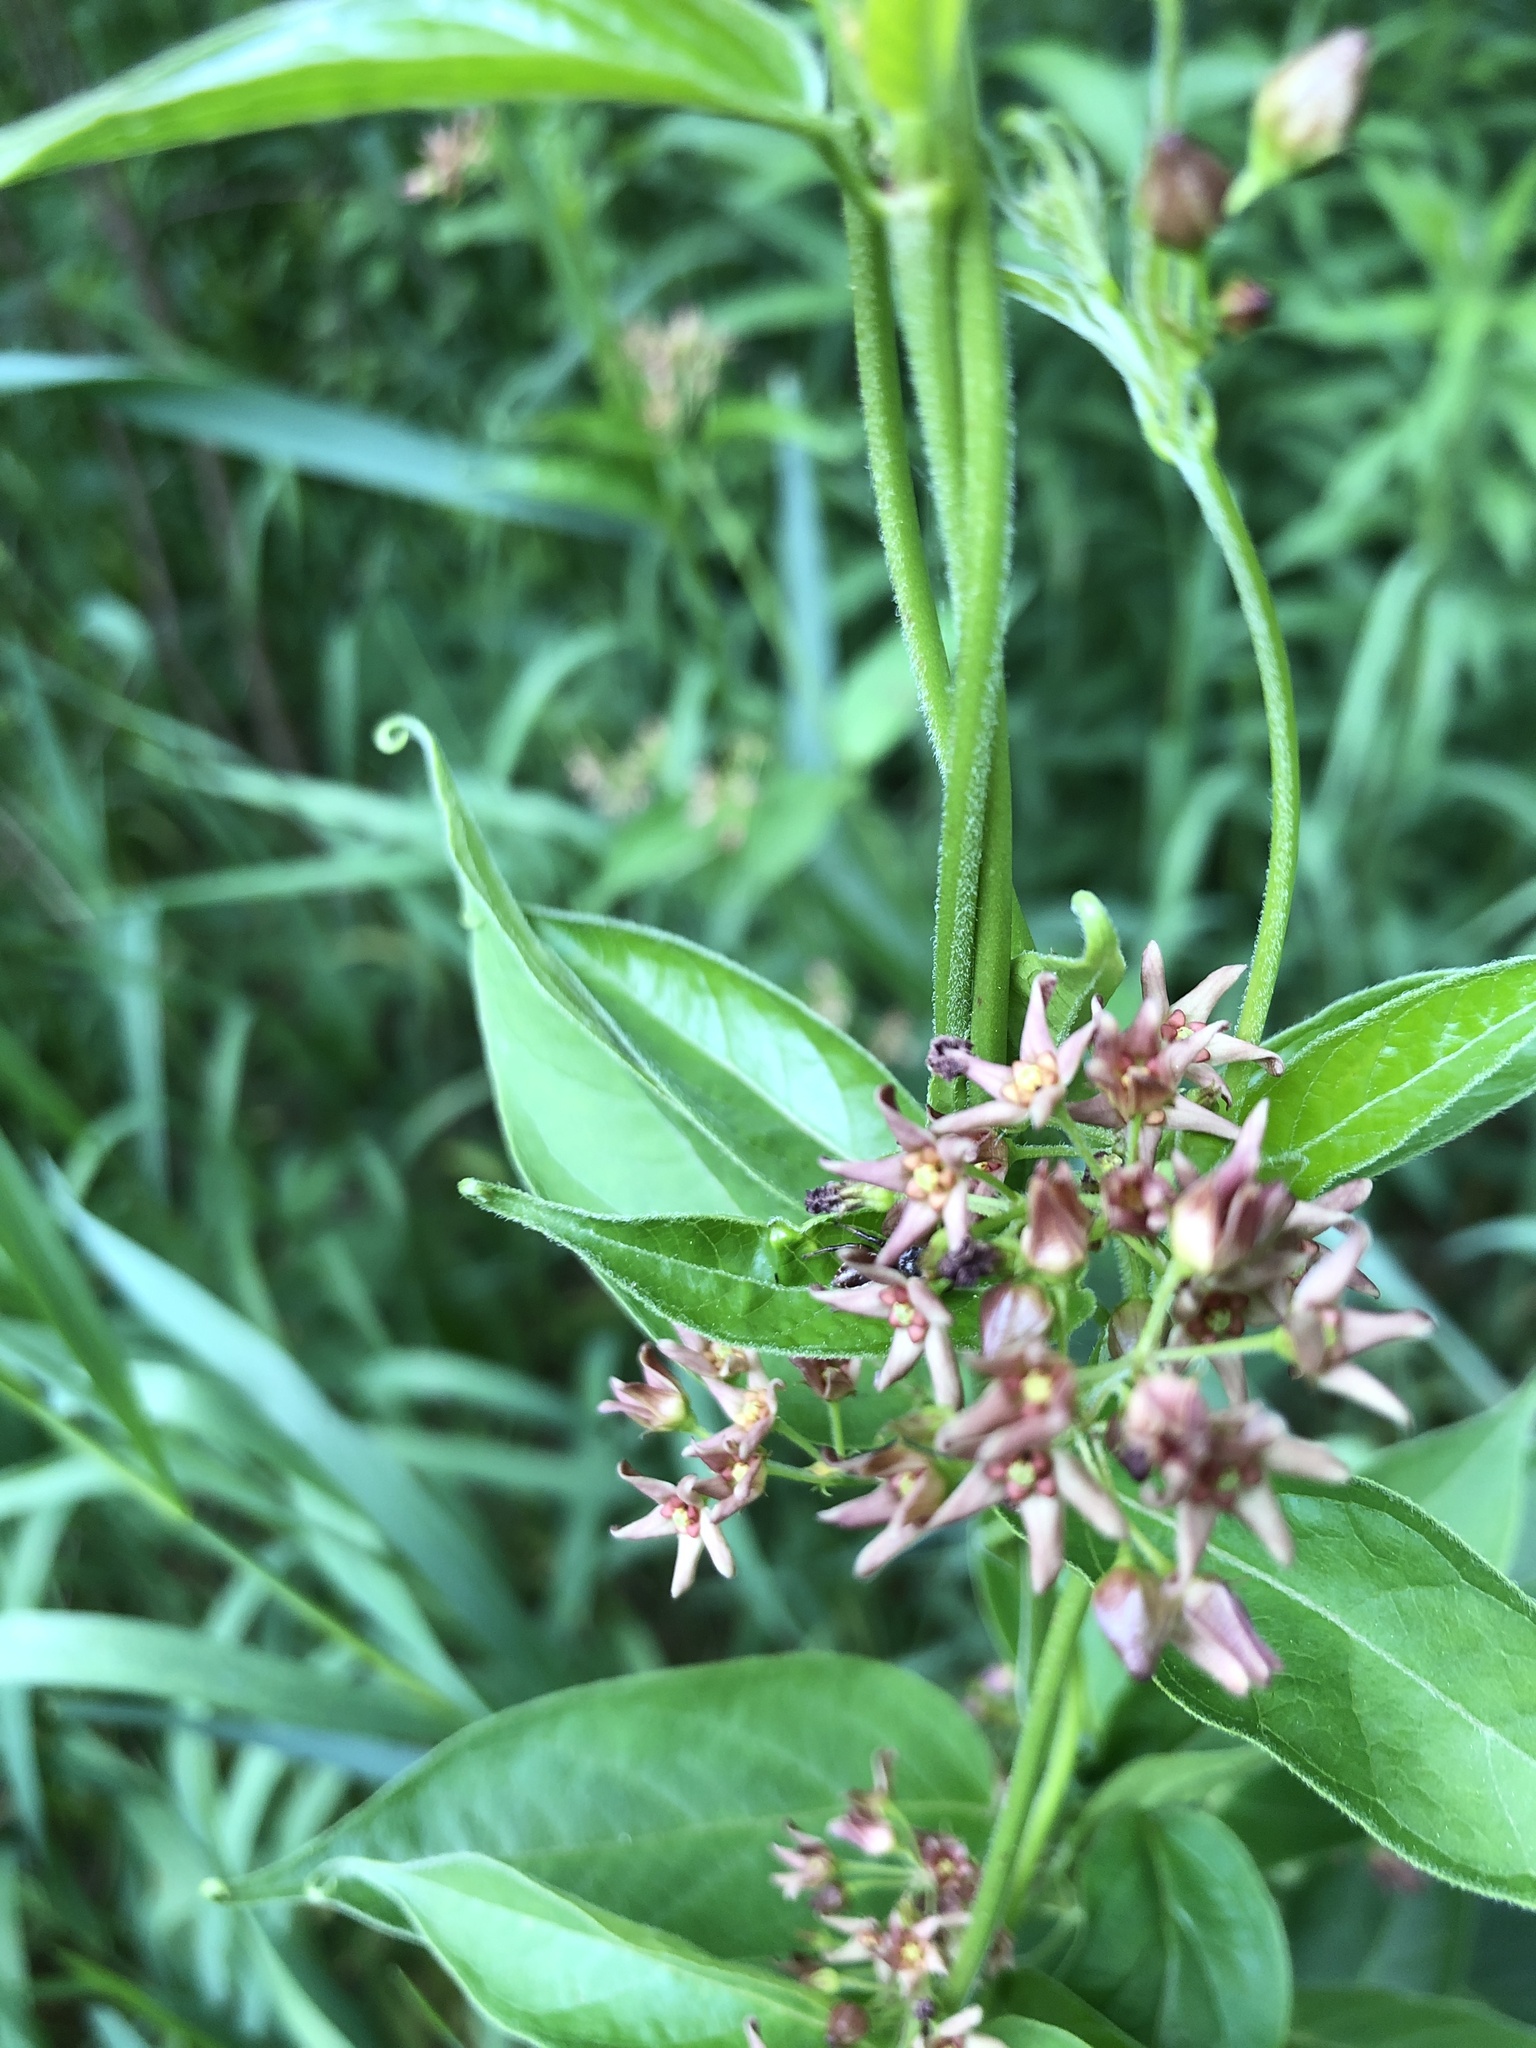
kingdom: Plantae
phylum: Tracheophyta
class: Magnoliopsida
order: Gentianales
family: Apocynaceae
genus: Vincetoxicum
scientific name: Vincetoxicum rossicum
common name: Dog-strangling vine
